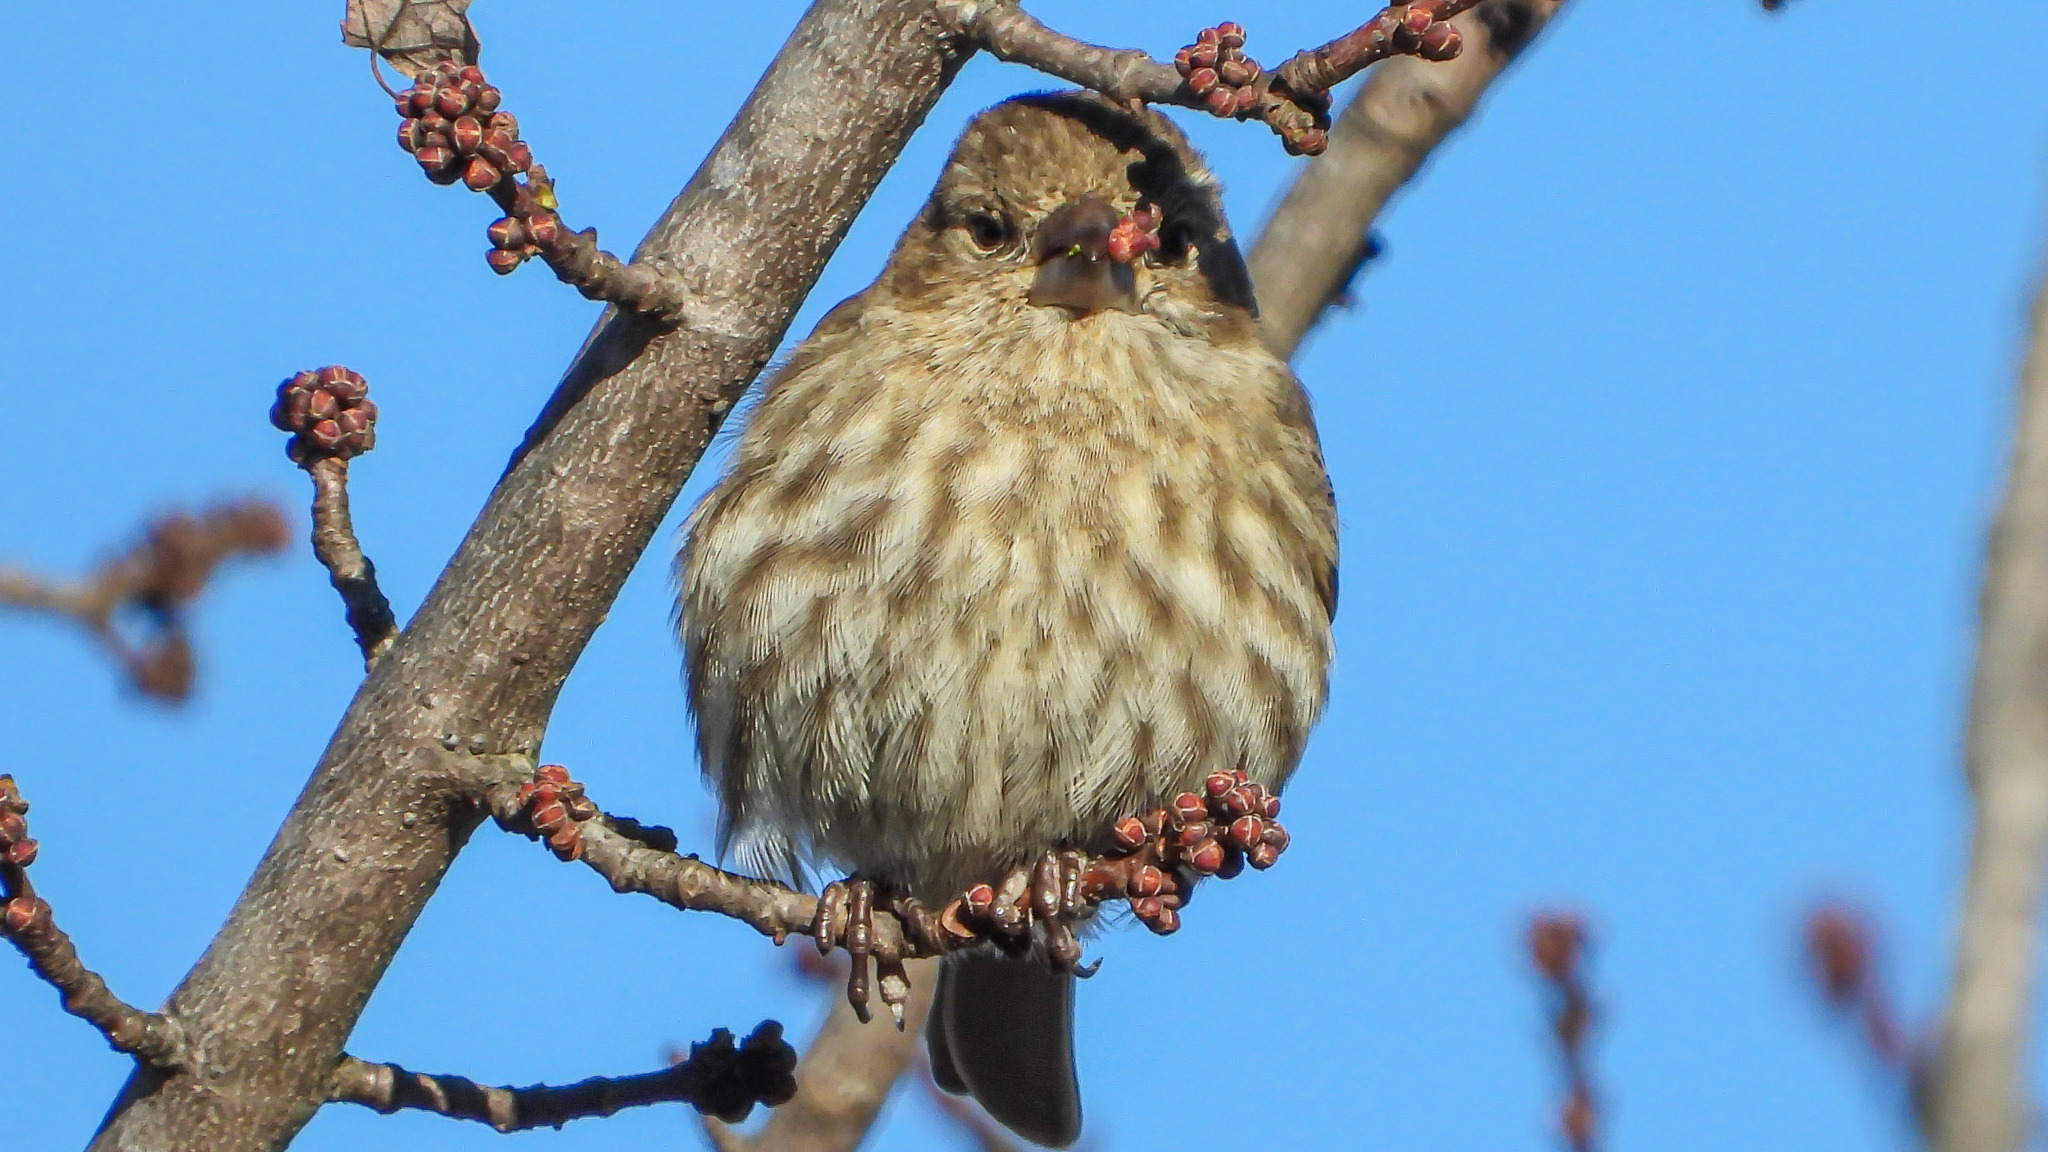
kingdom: Animalia
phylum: Chordata
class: Aves
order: Passeriformes
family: Fringillidae
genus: Haemorhous
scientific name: Haemorhous mexicanus
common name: House finch
